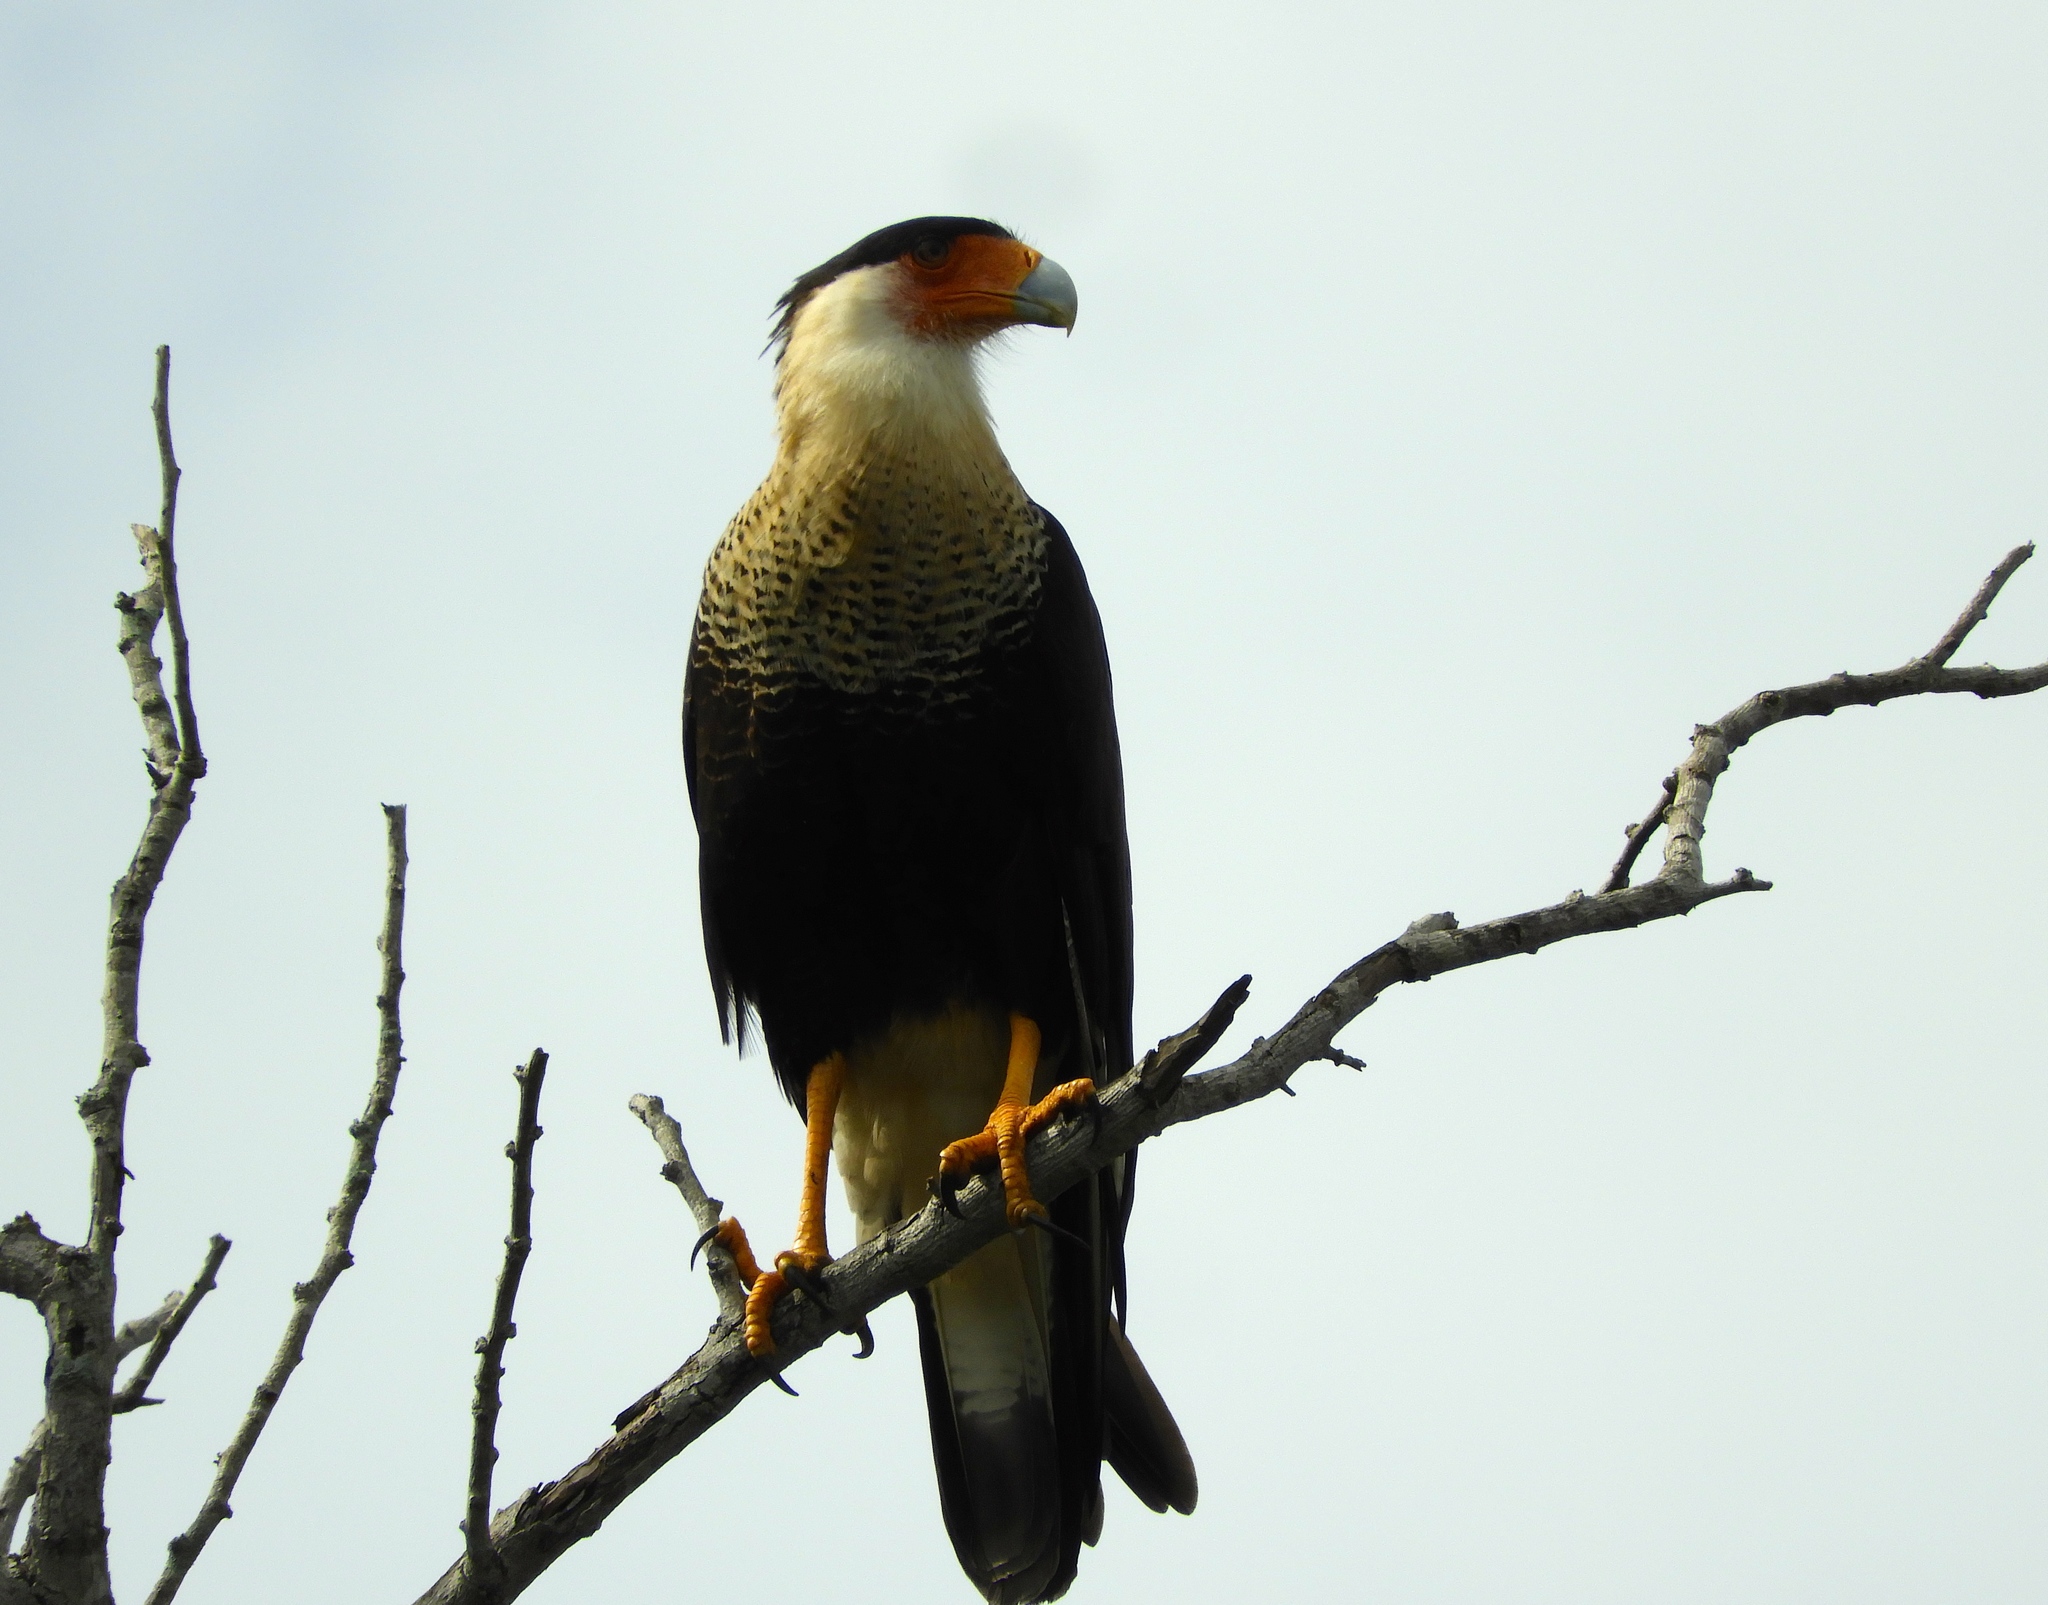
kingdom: Animalia
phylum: Chordata
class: Aves
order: Falconiformes
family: Falconidae
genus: Caracara
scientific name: Caracara plancus
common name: Southern caracara
